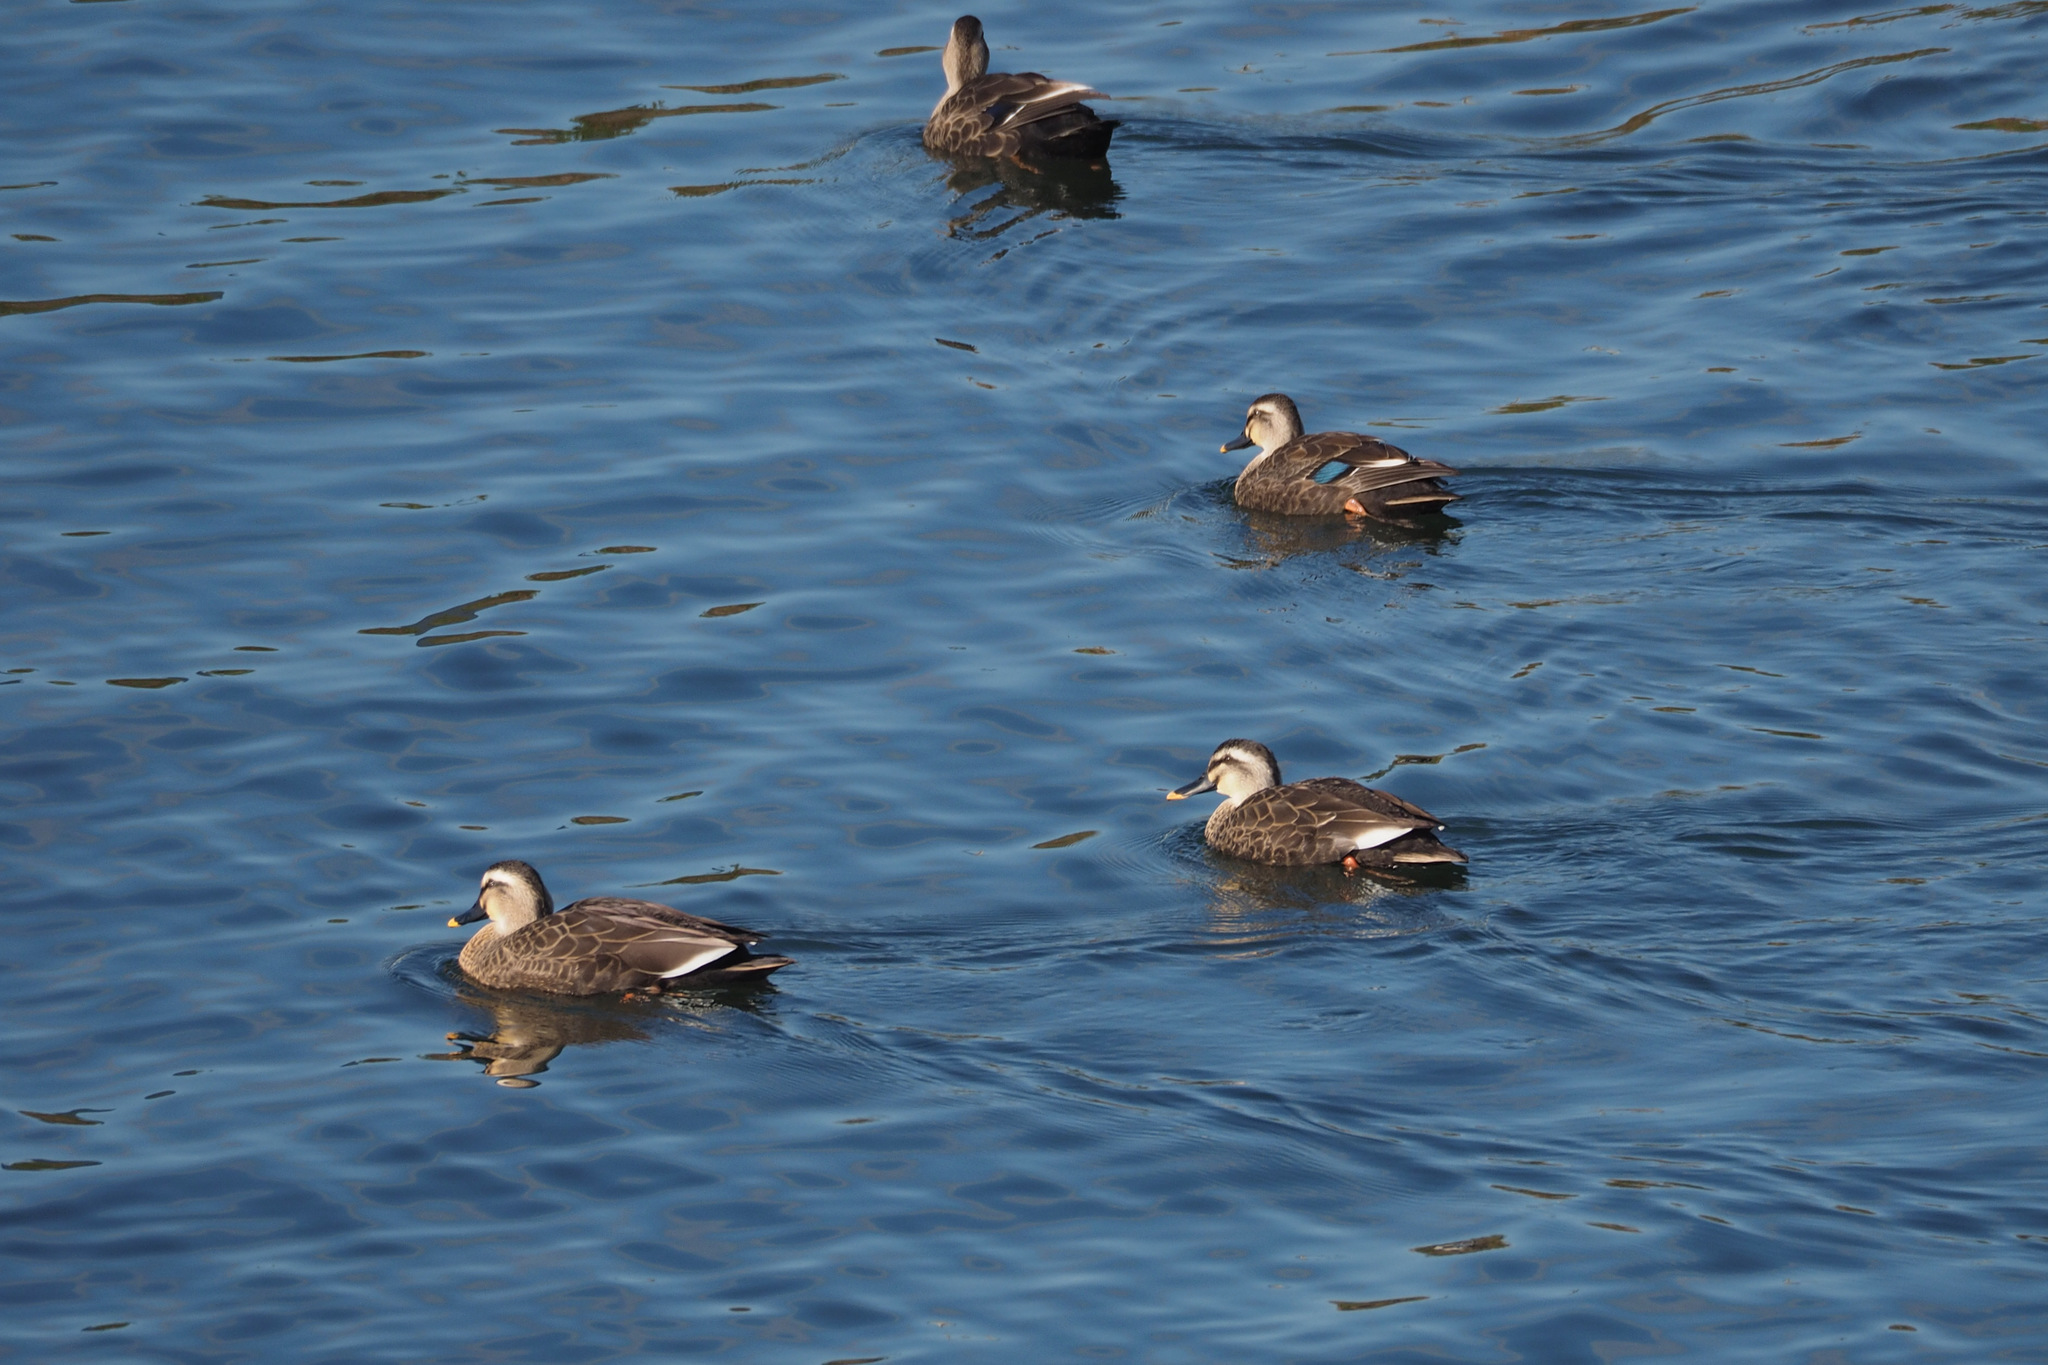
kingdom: Animalia
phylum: Chordata
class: Aves
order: Anseriformes
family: Anatidae
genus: Anas
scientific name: Anas zonorhyncha
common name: Eastern spot-billed duck
